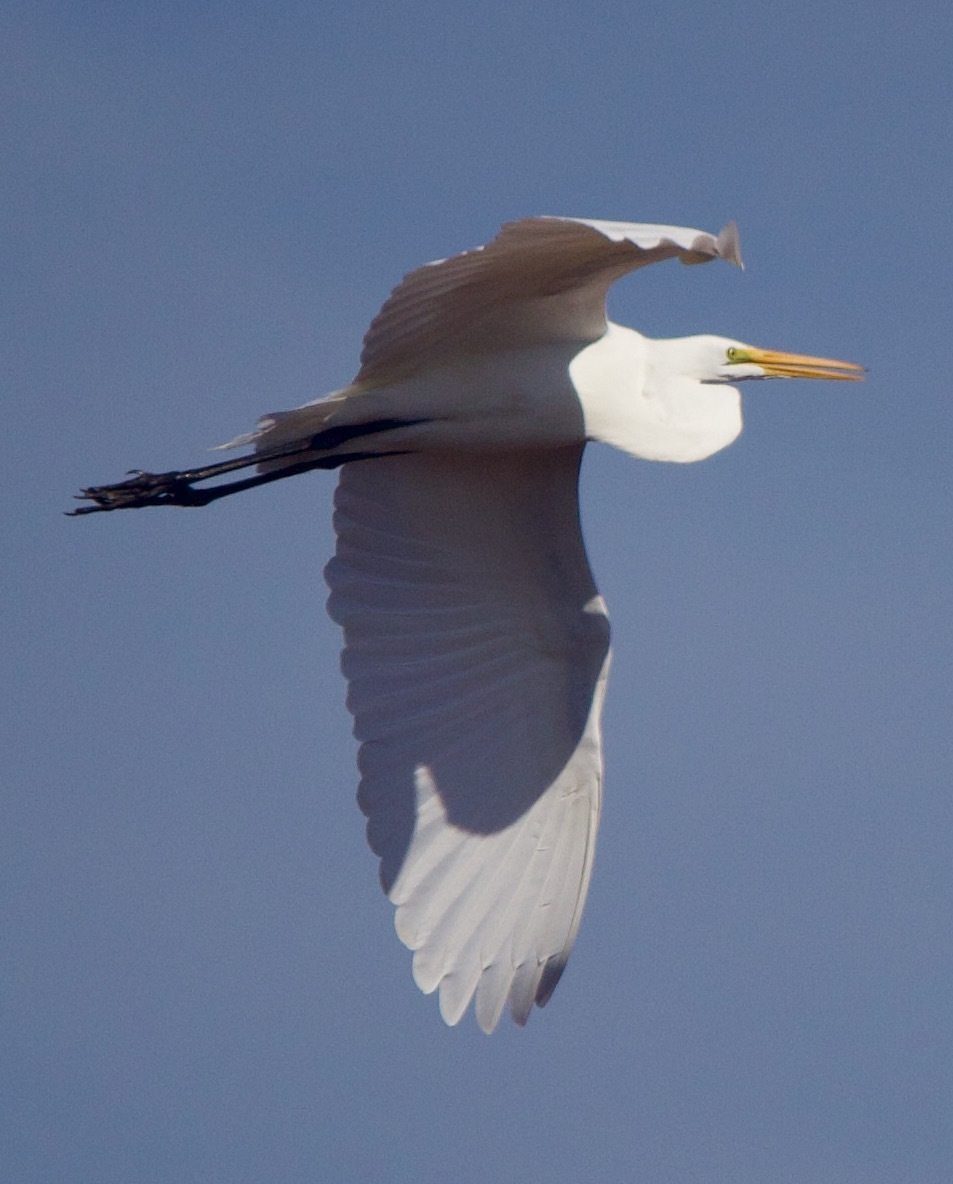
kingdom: Animalia
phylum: Chordata
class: Aves
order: Pelecaniformes
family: Ardeidae
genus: Ardea
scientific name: Ardea alba
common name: Great egret
